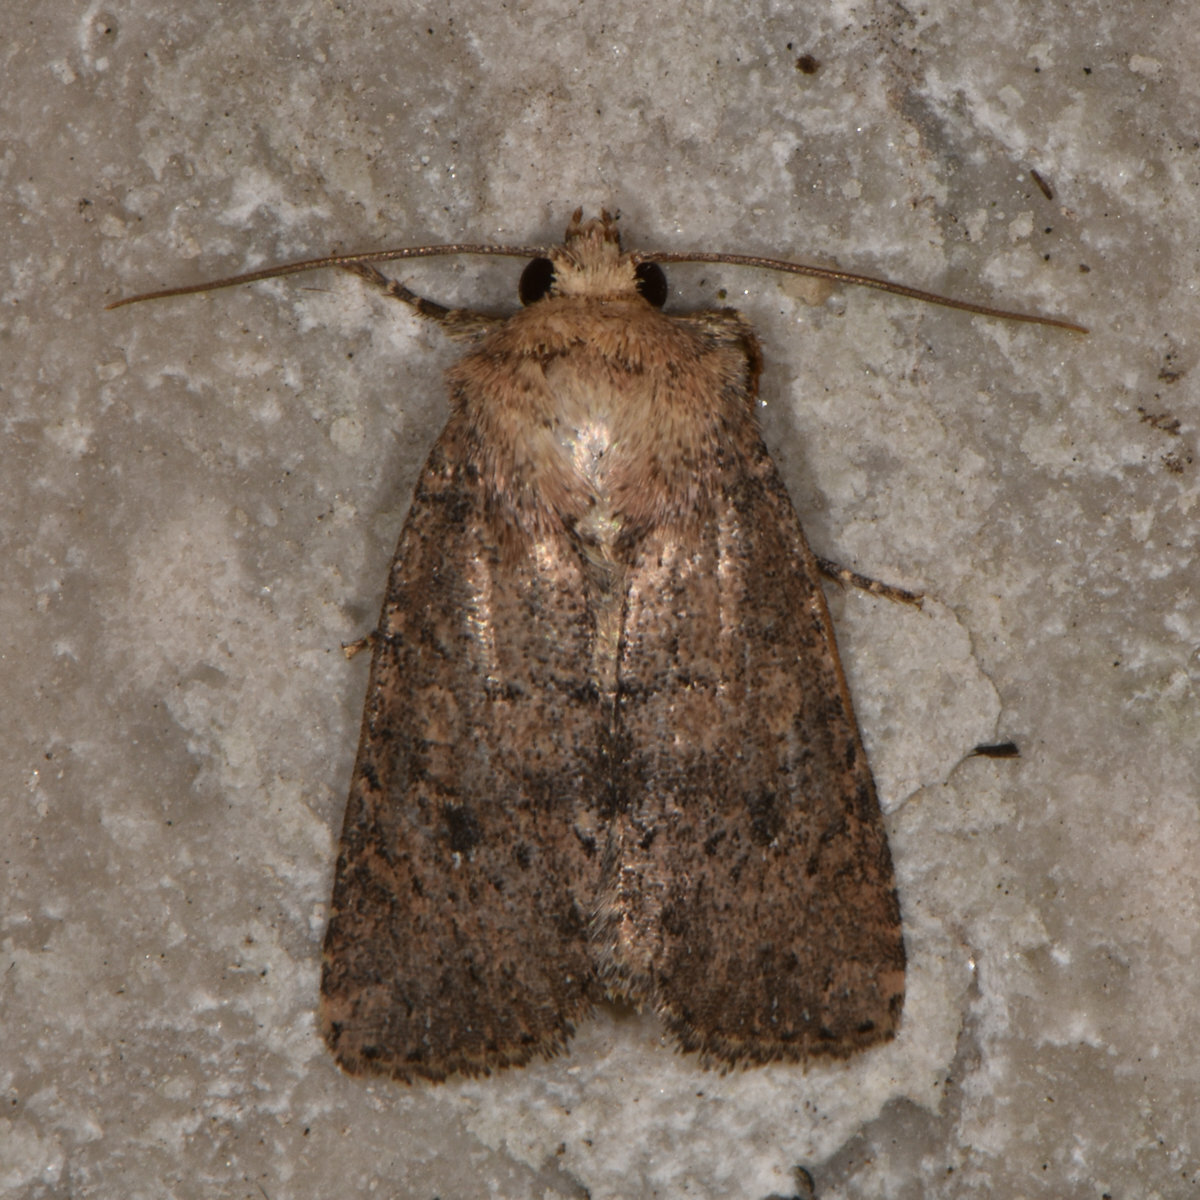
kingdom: Animalia
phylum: Arthropoda
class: Insecta
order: Lepidoptera
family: Noctuidae
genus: Homorthodes
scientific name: Homorthodes furfurata
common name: Northern scurfy quaker
